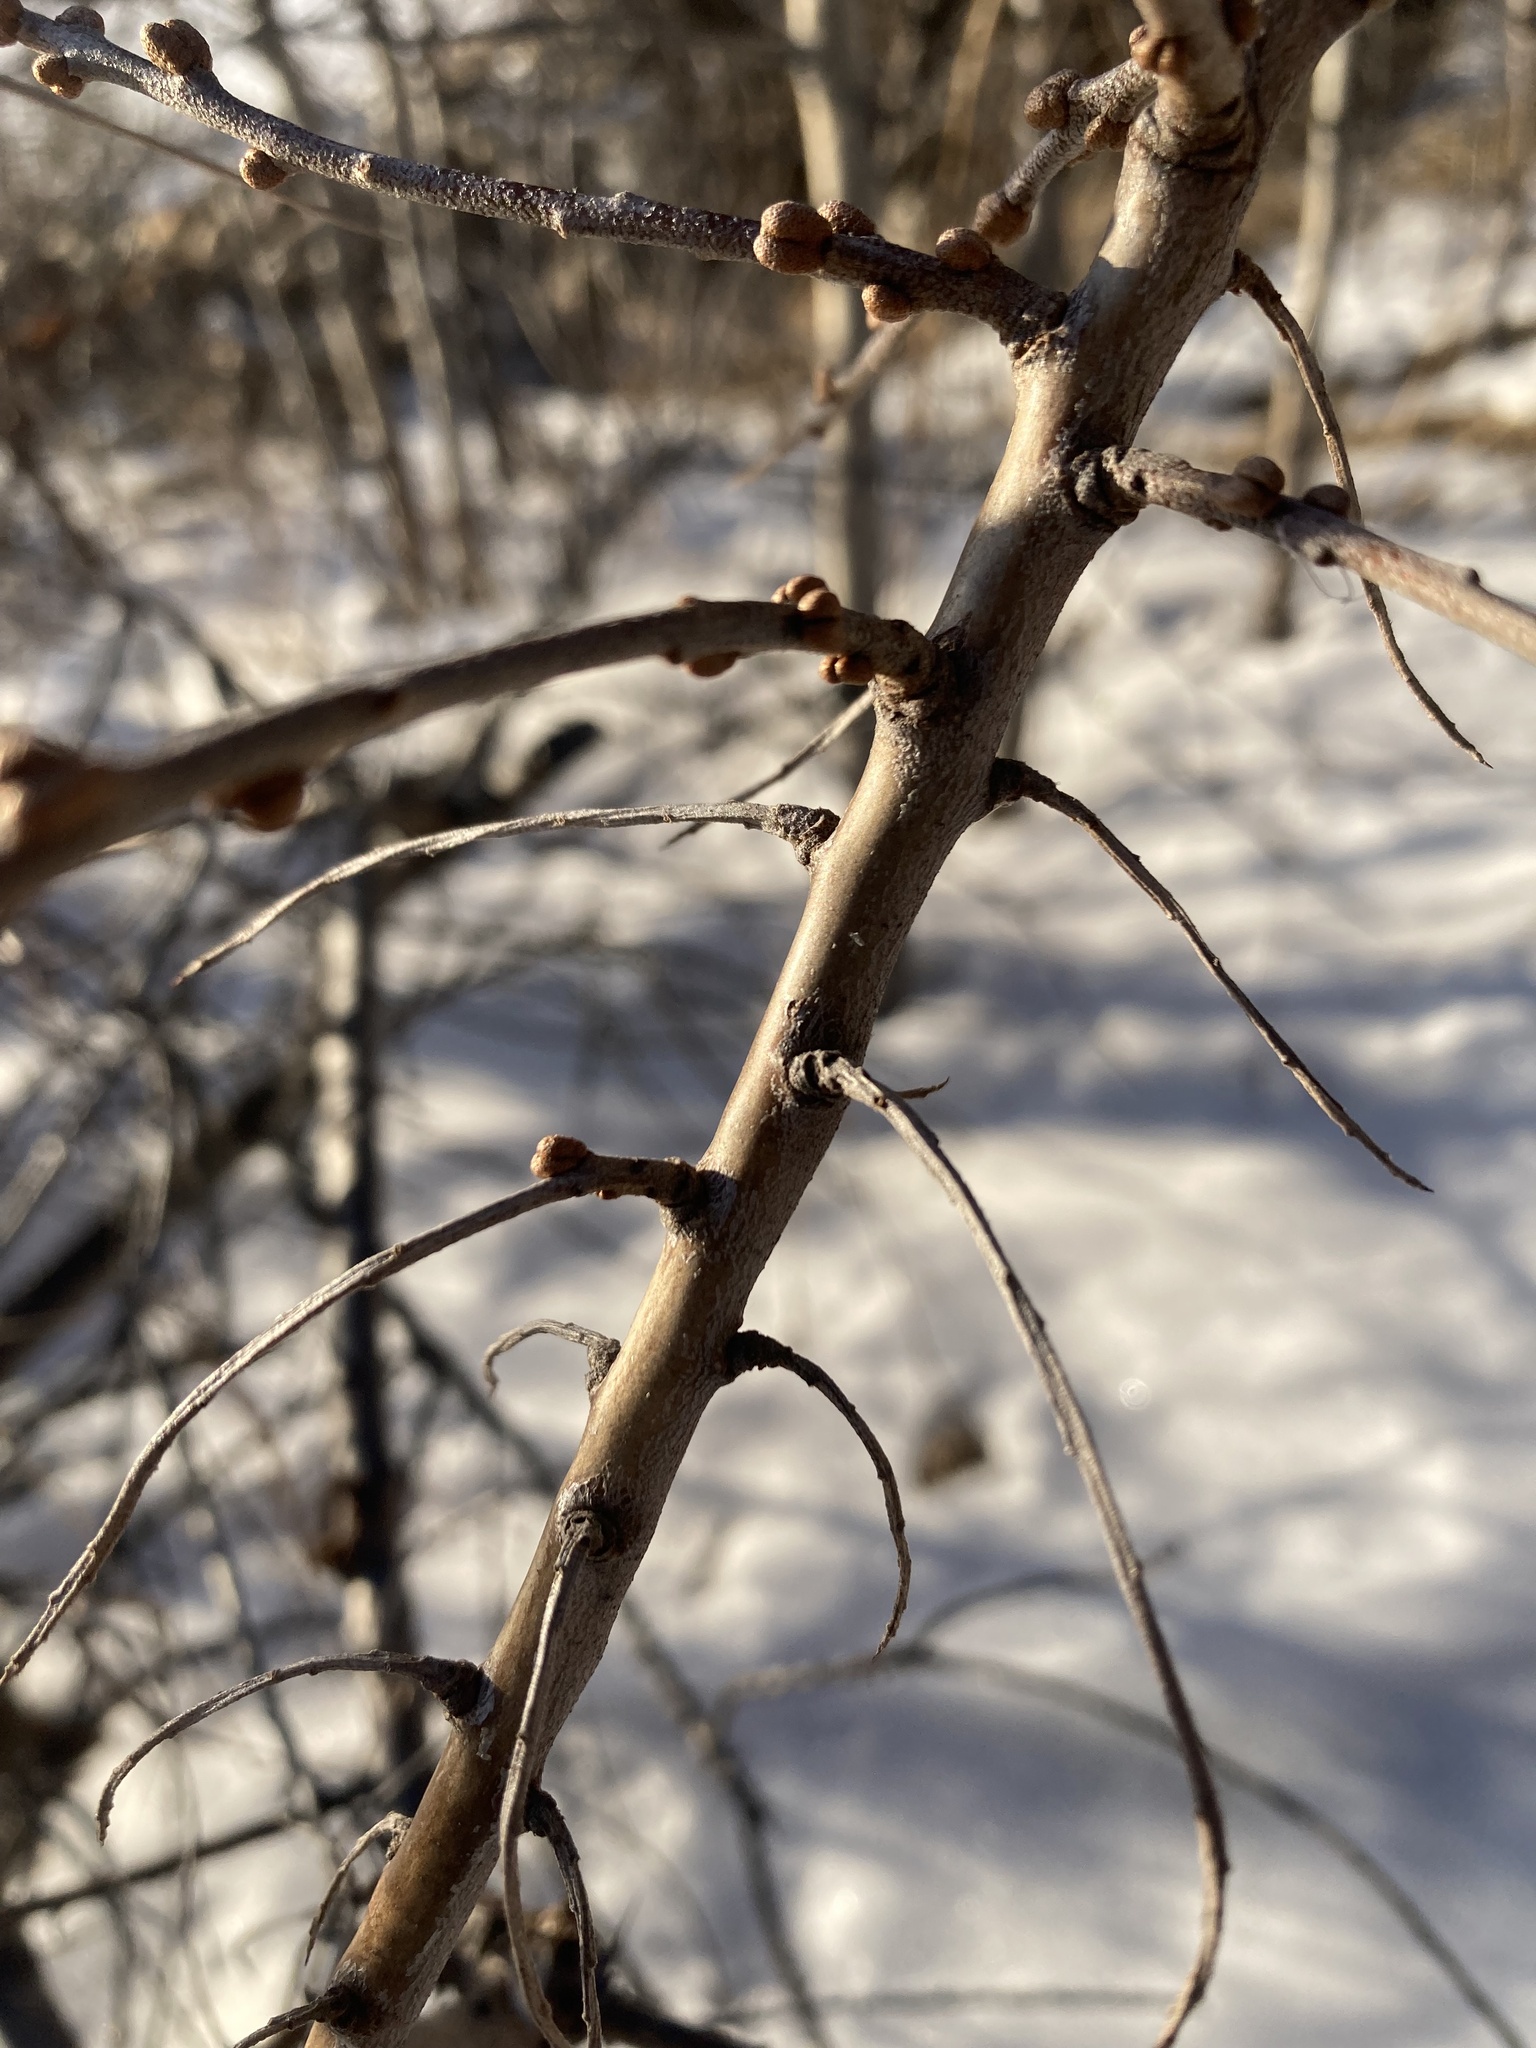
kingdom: Plantae
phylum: Tracheophyta
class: Magnoliopsida
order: Rosales
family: Elaeagnaceae
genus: Hippophae
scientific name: Hippophae rhamnoides
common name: Sea-buckthorn
